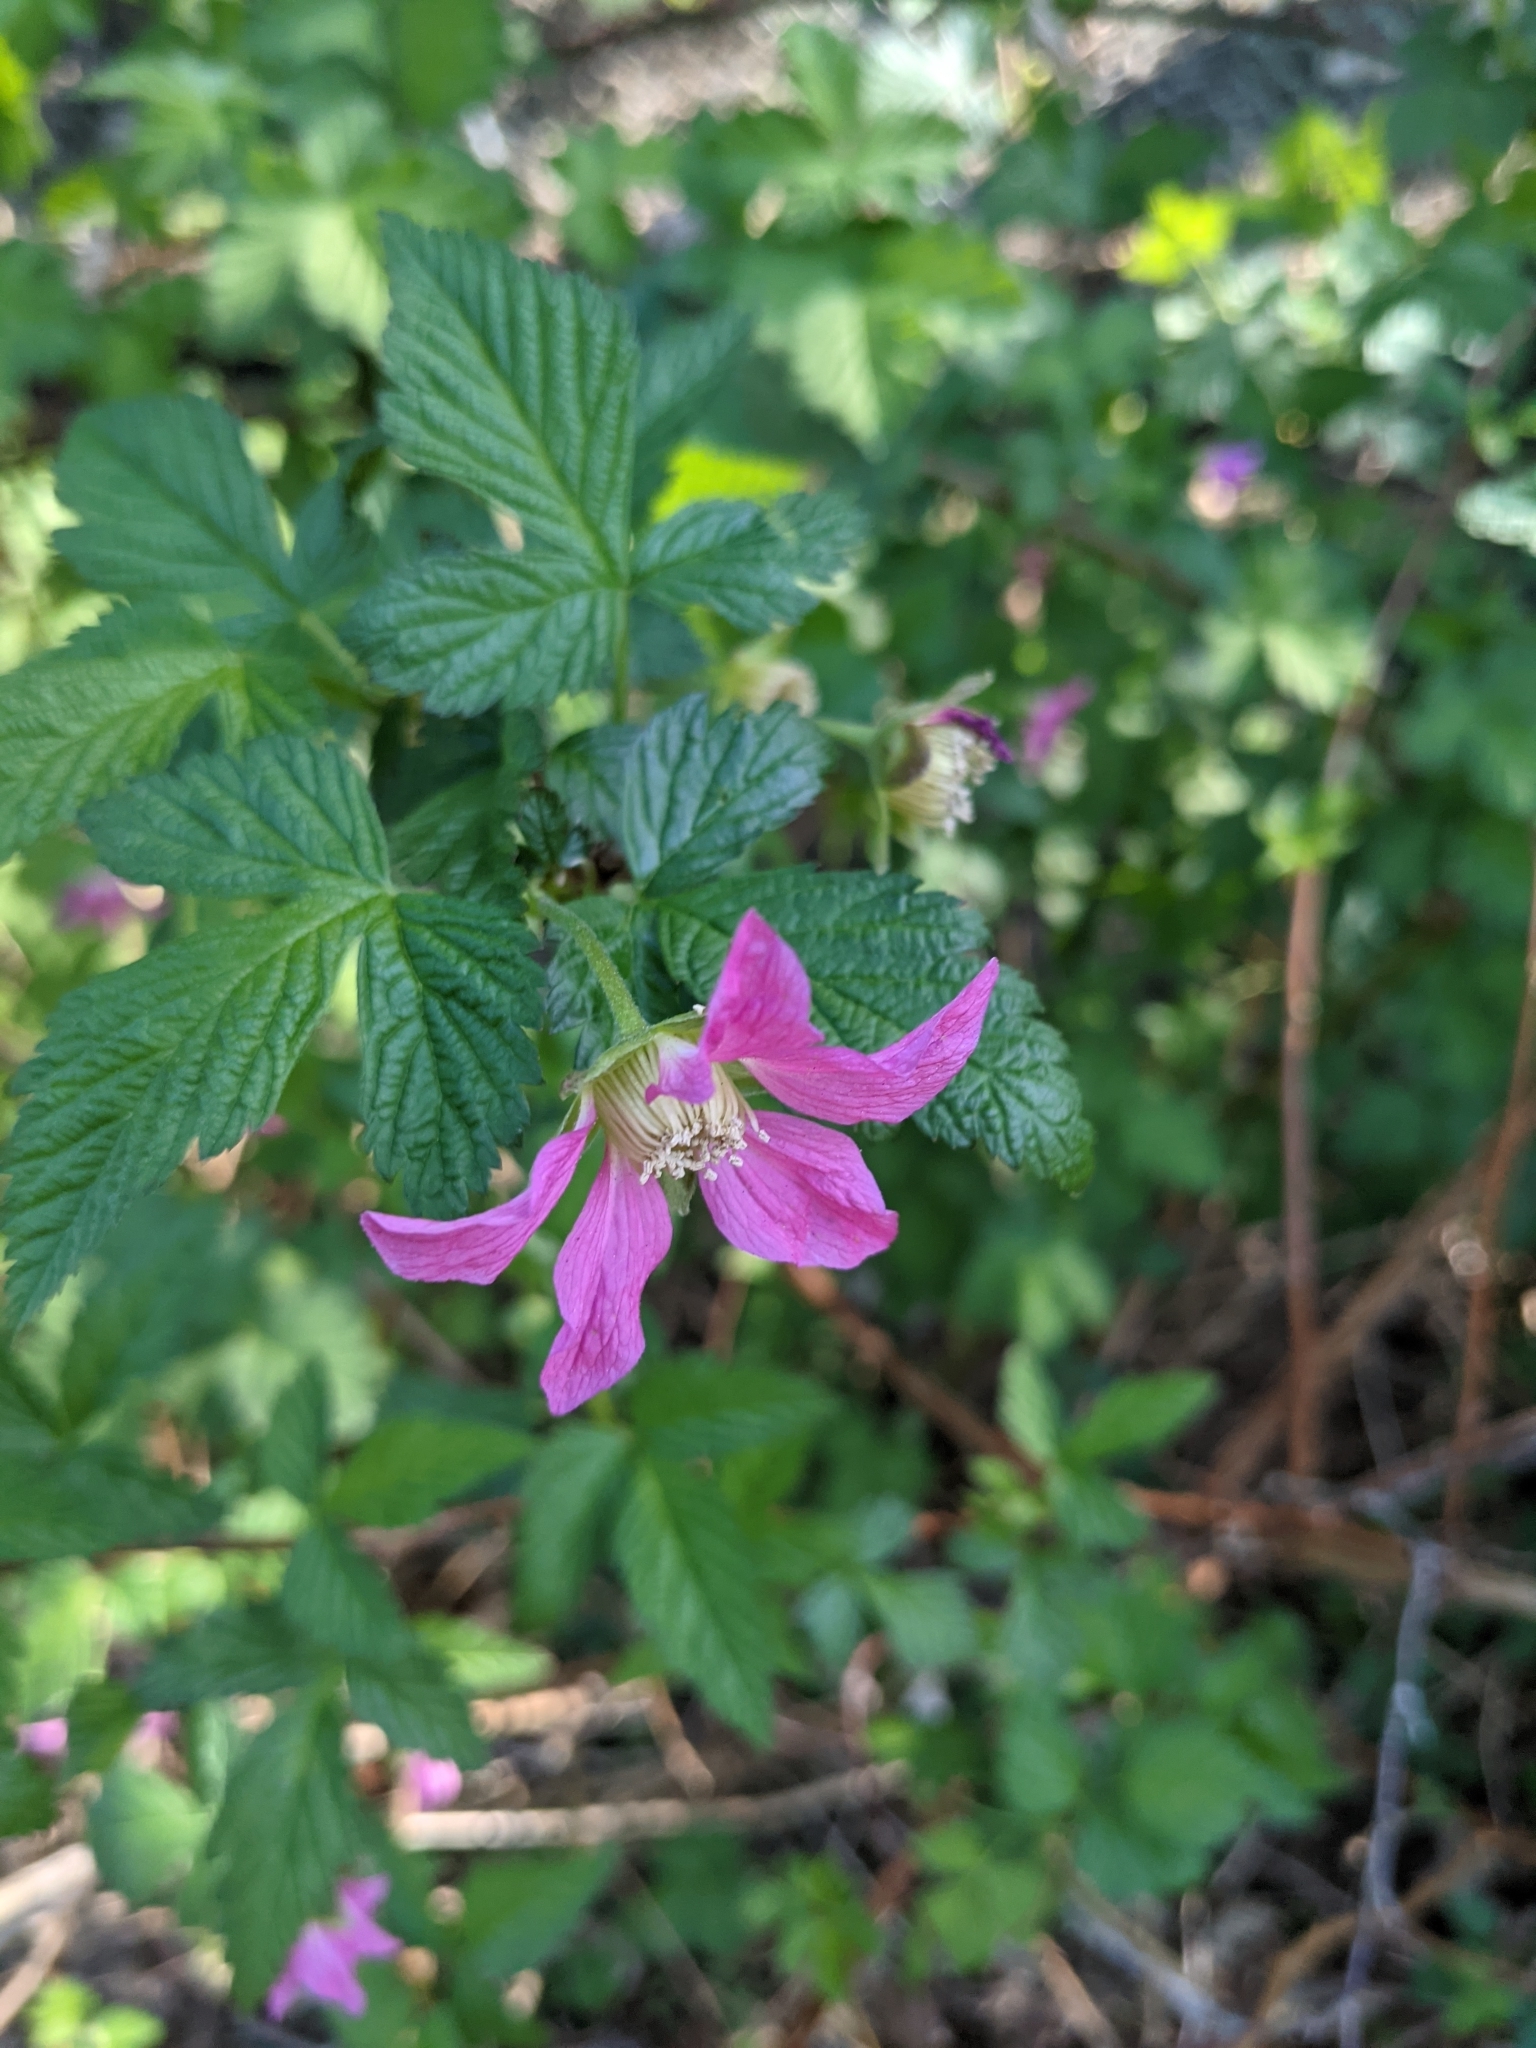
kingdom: Plantae
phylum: Tracheophyta
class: Magnoliopsida
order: Rosales
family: Rosaceae
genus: Rubus
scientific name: Rubus spectabilis
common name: Salmonberry
